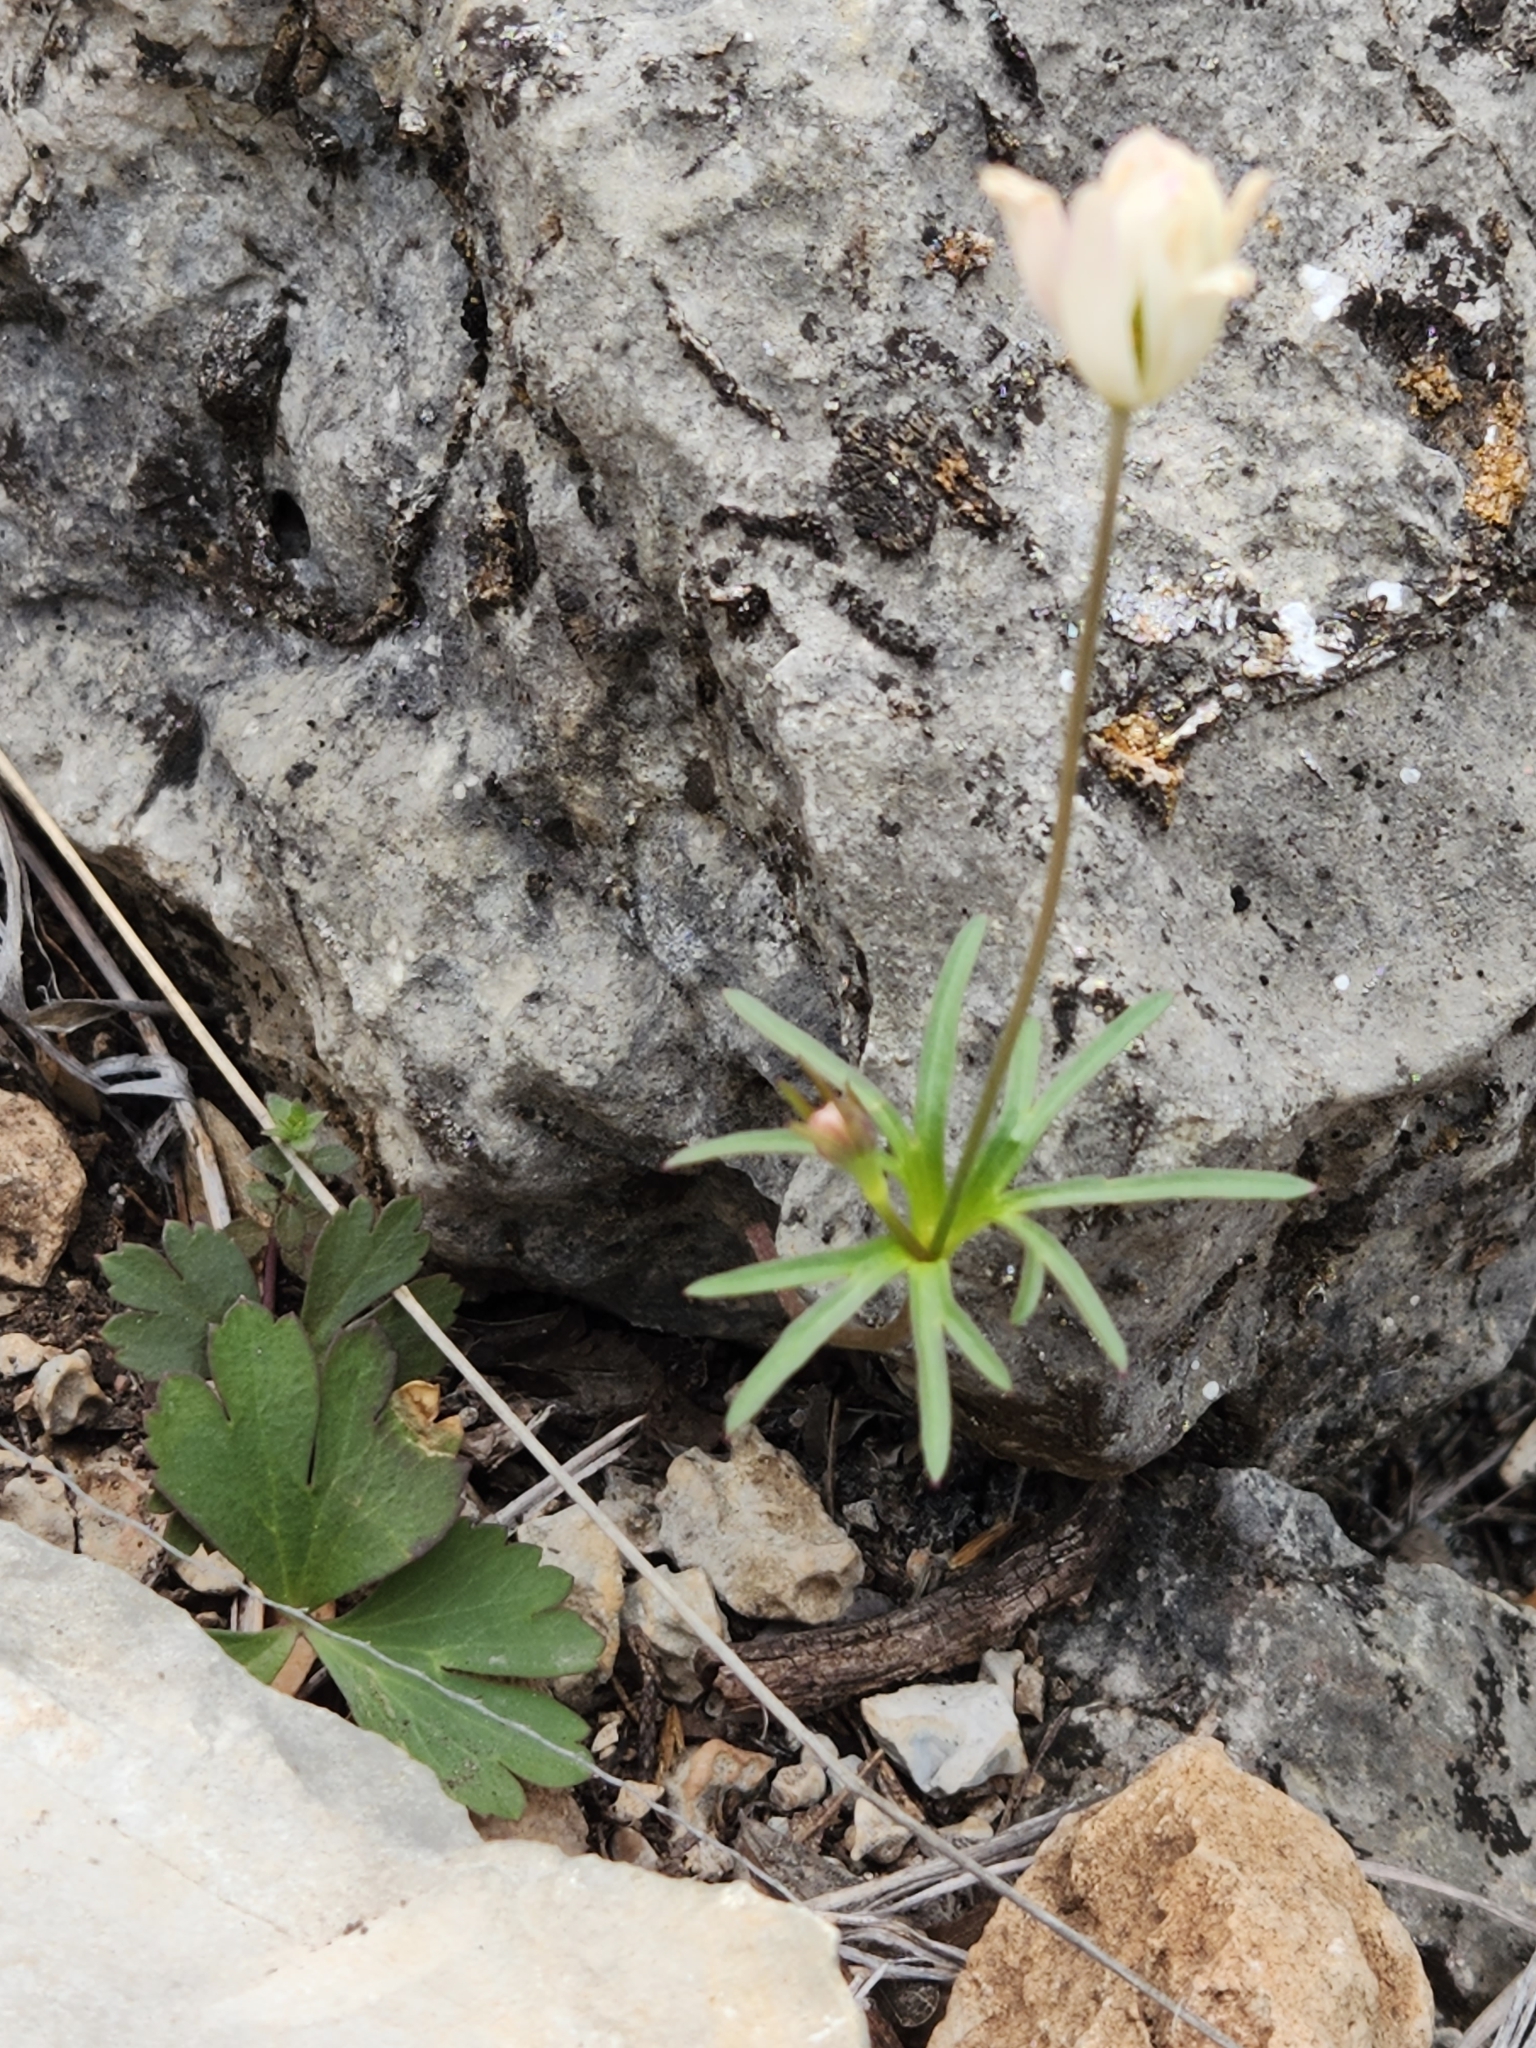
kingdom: Plantae
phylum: Tracheophyta
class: Magnoliopsida
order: Ranunculales
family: Ranunculaceae
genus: Anemone
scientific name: Anemone edwardsiana
